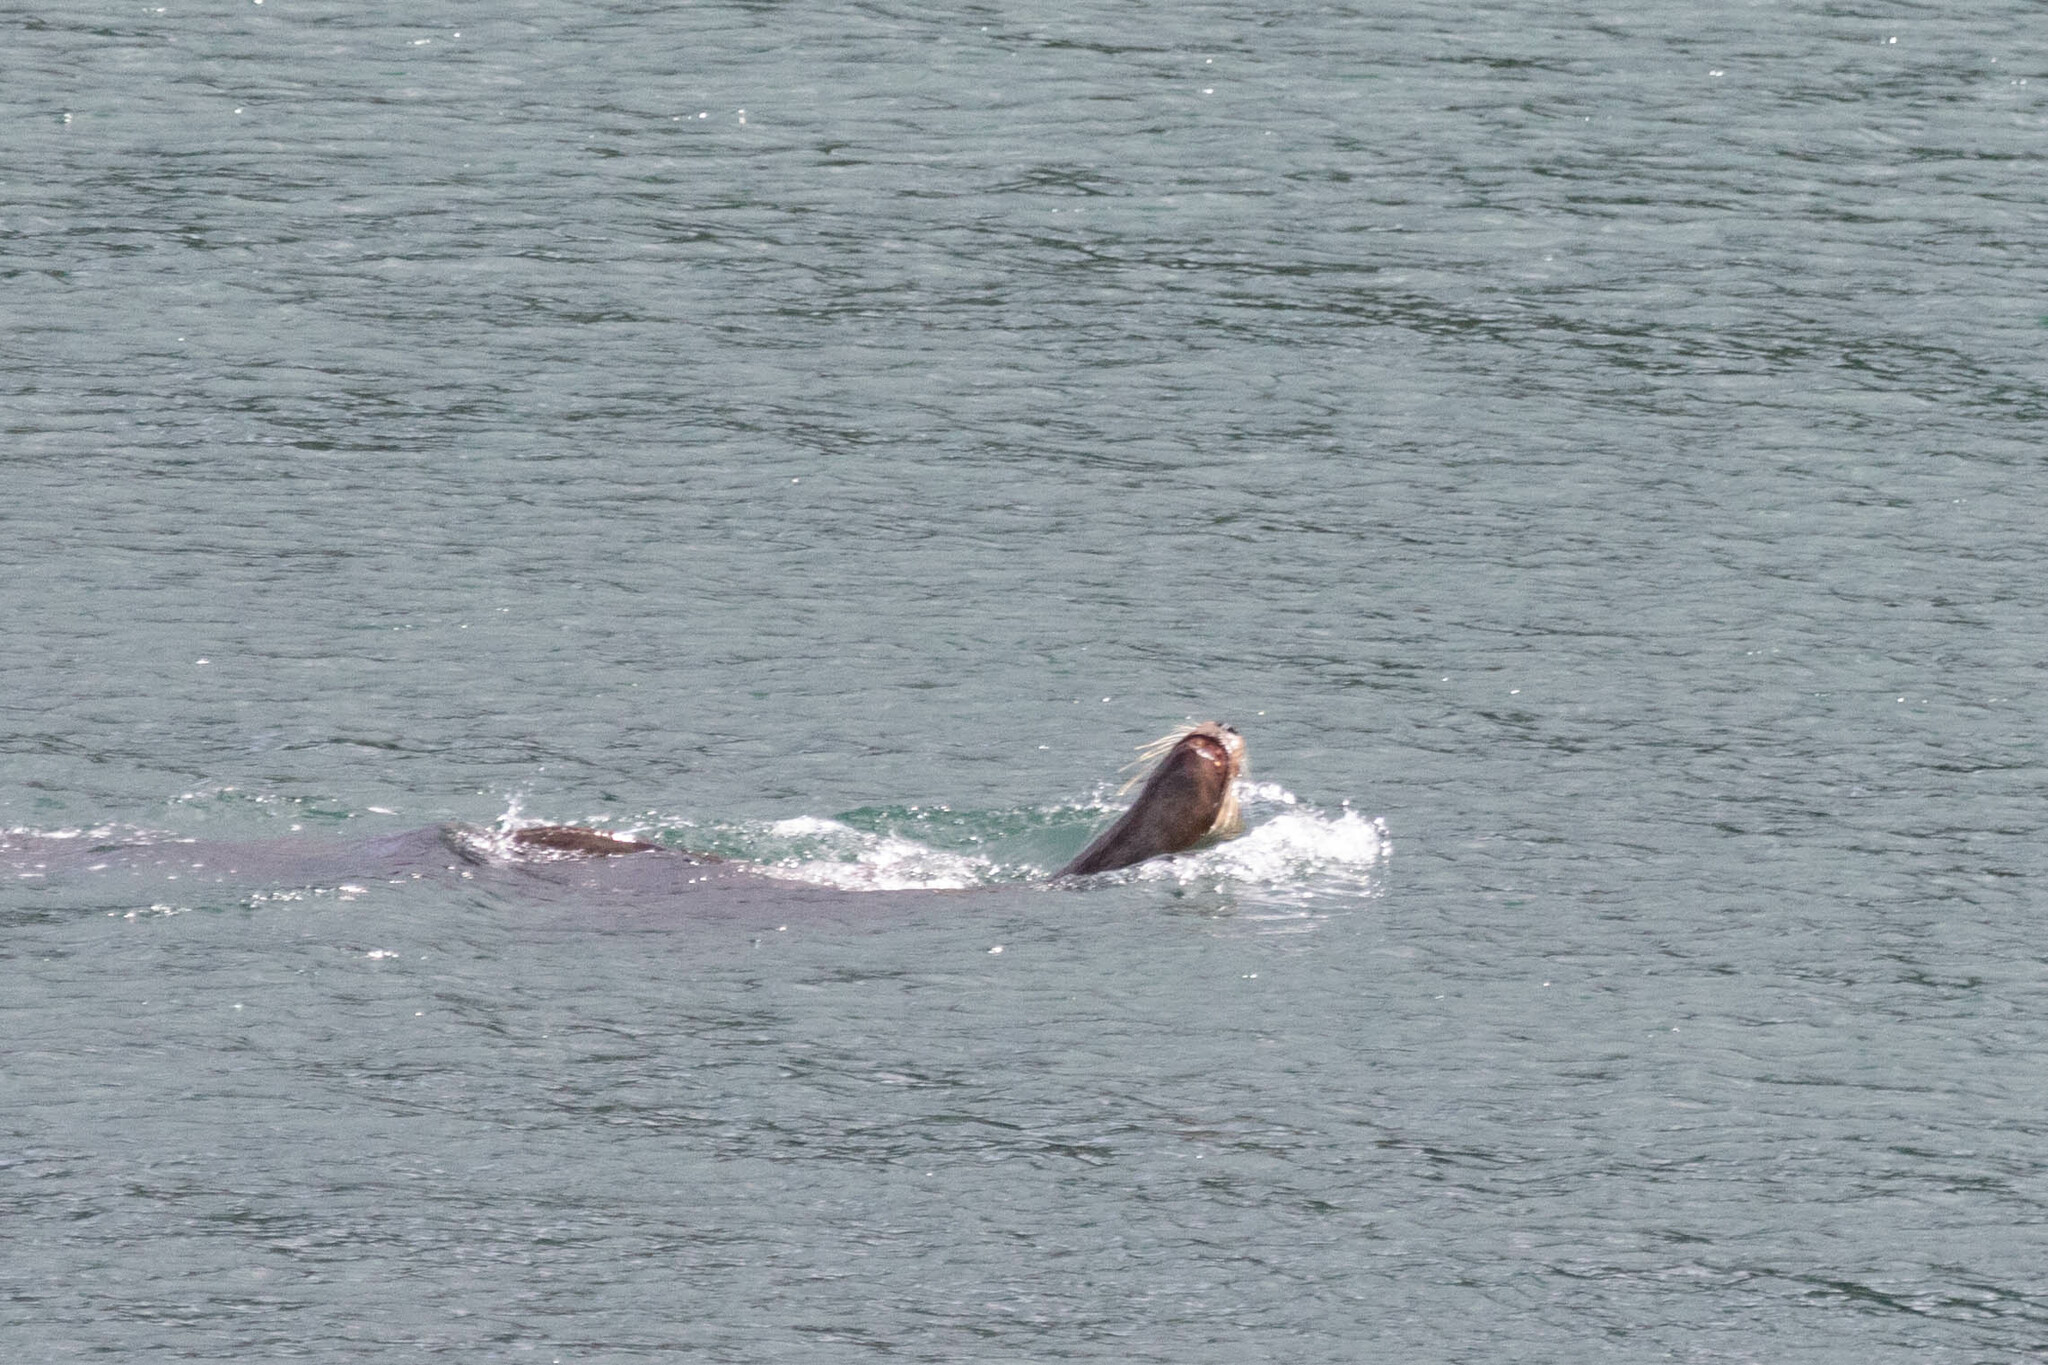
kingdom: Animalia
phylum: Chordata
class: Mammalia
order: Carnivora
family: Otariidae
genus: Eumetopias
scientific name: Eumetopias jubatus
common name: Steller sea lion
